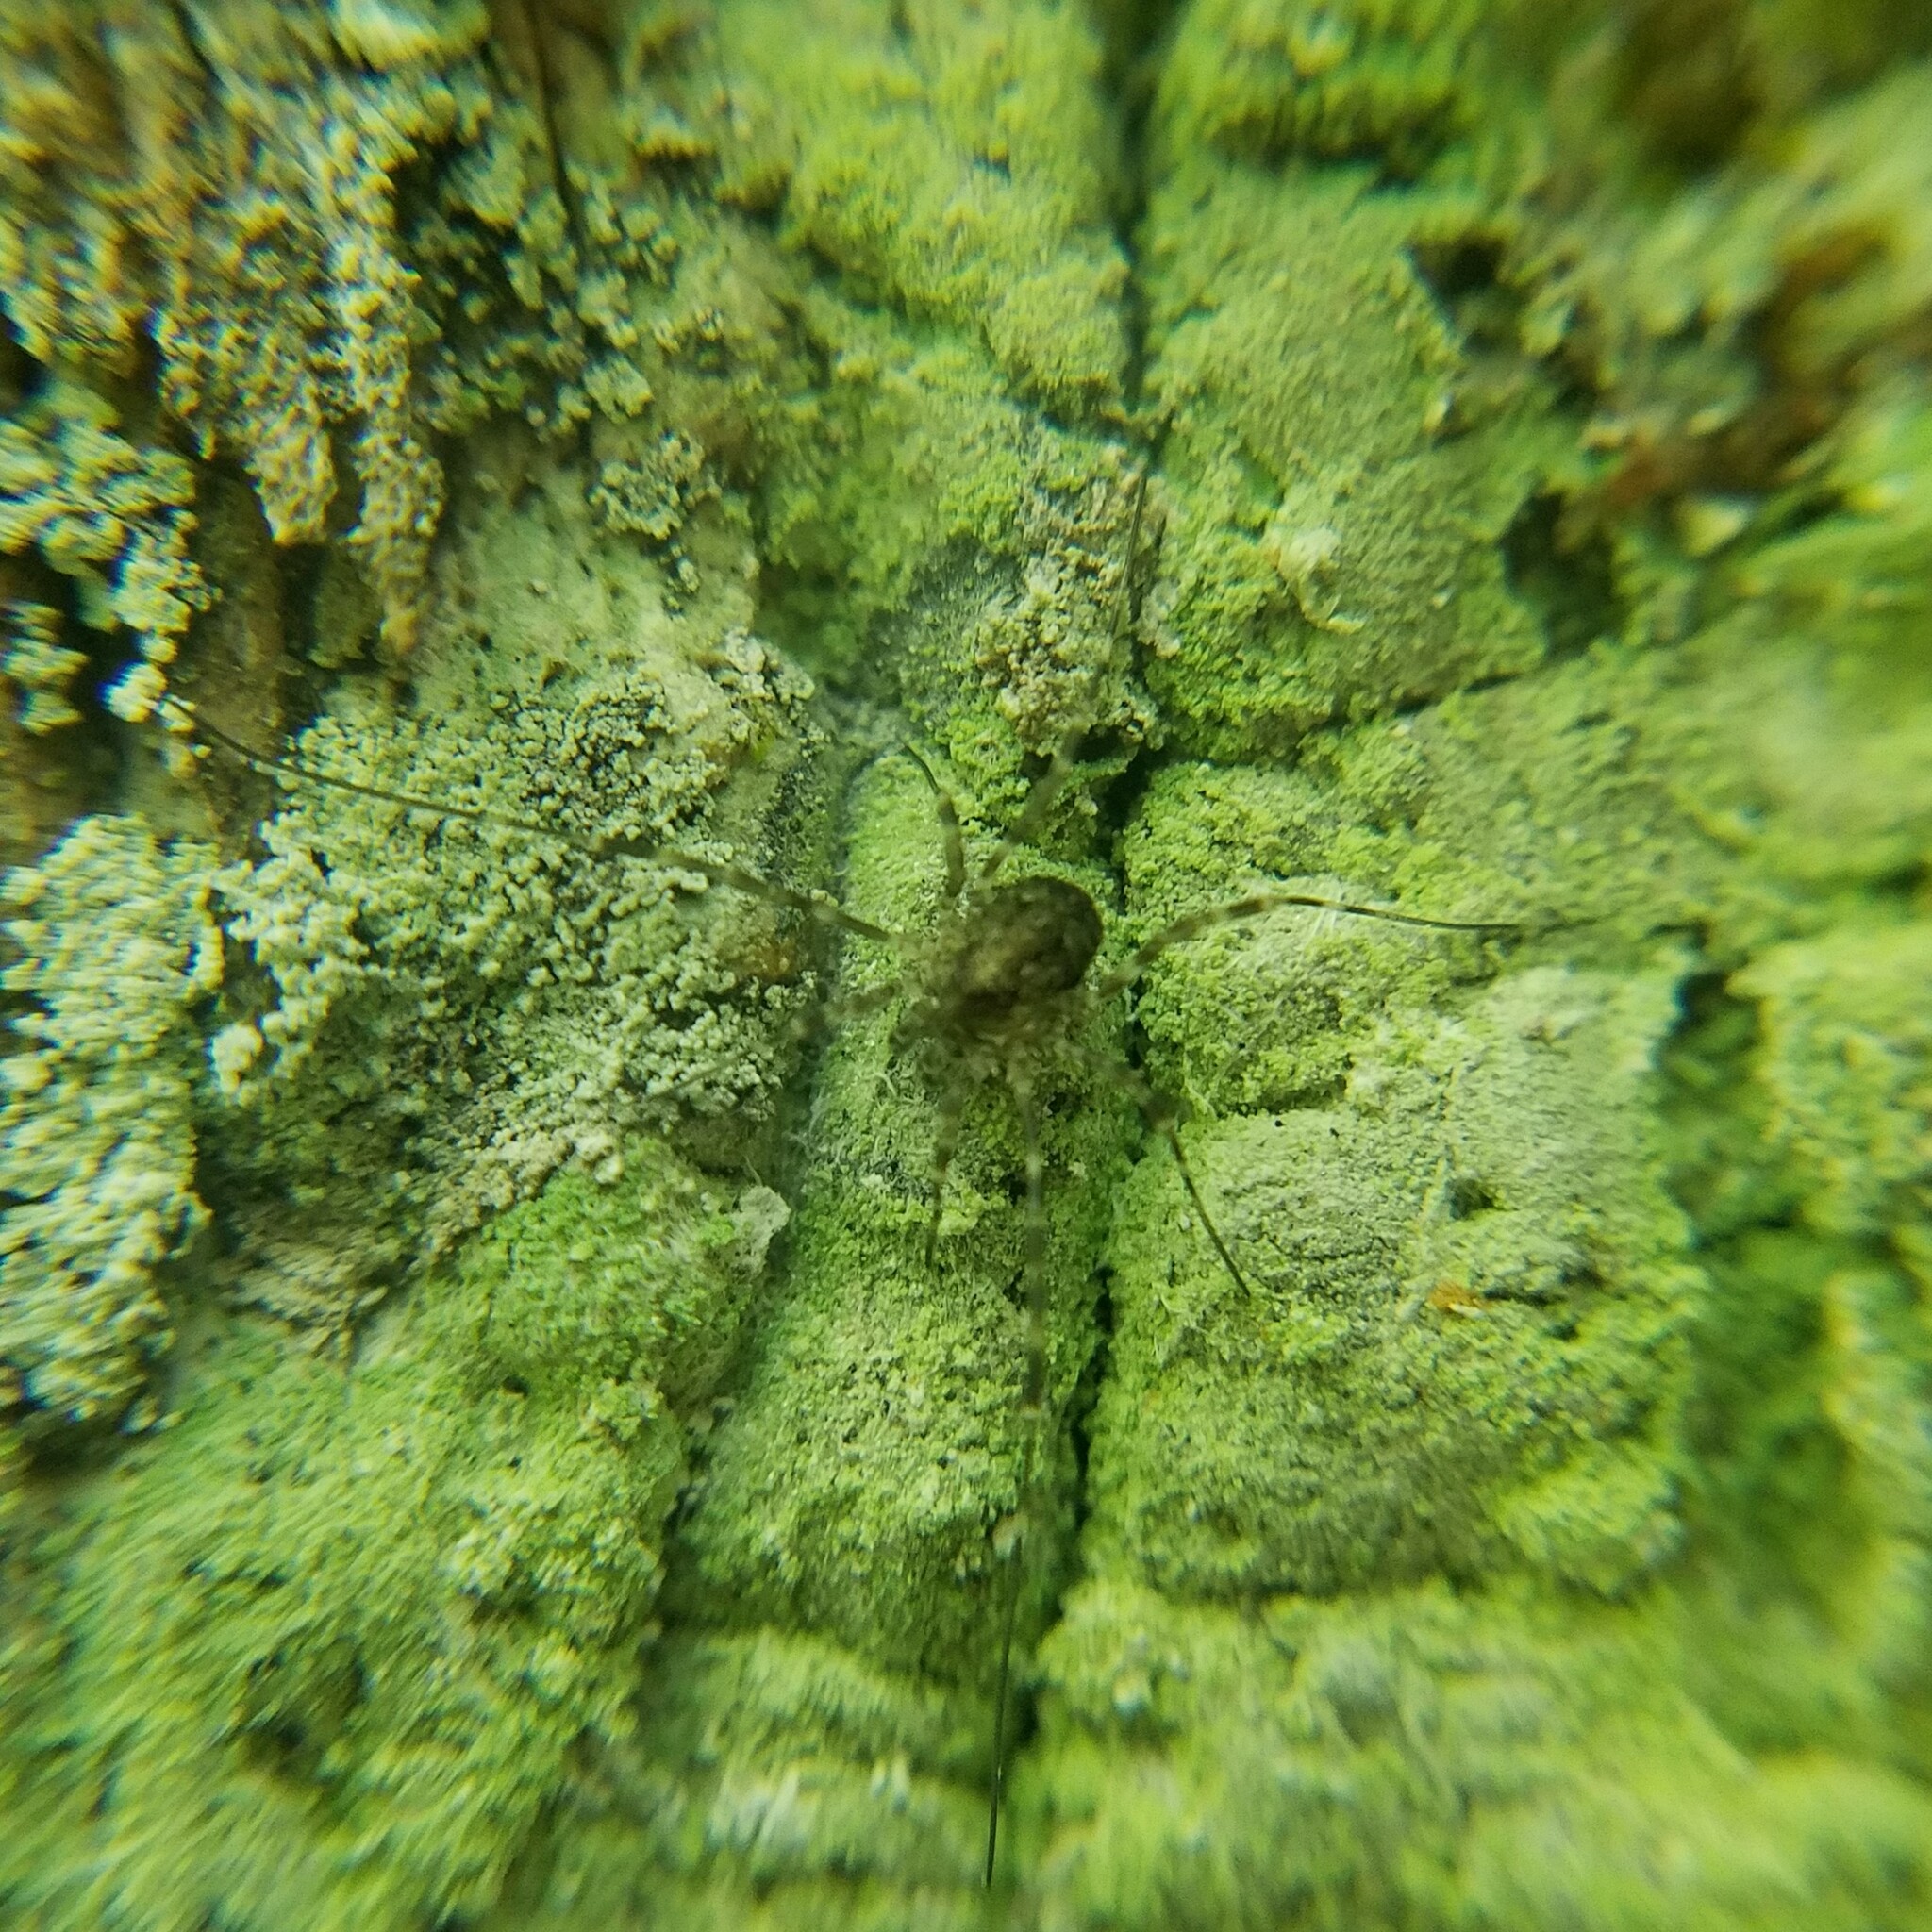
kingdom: Animalia
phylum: Arthropoda
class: Arachnida
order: Opiliones
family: Phalangiidae
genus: Odiellus
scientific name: Odiellus pictus
